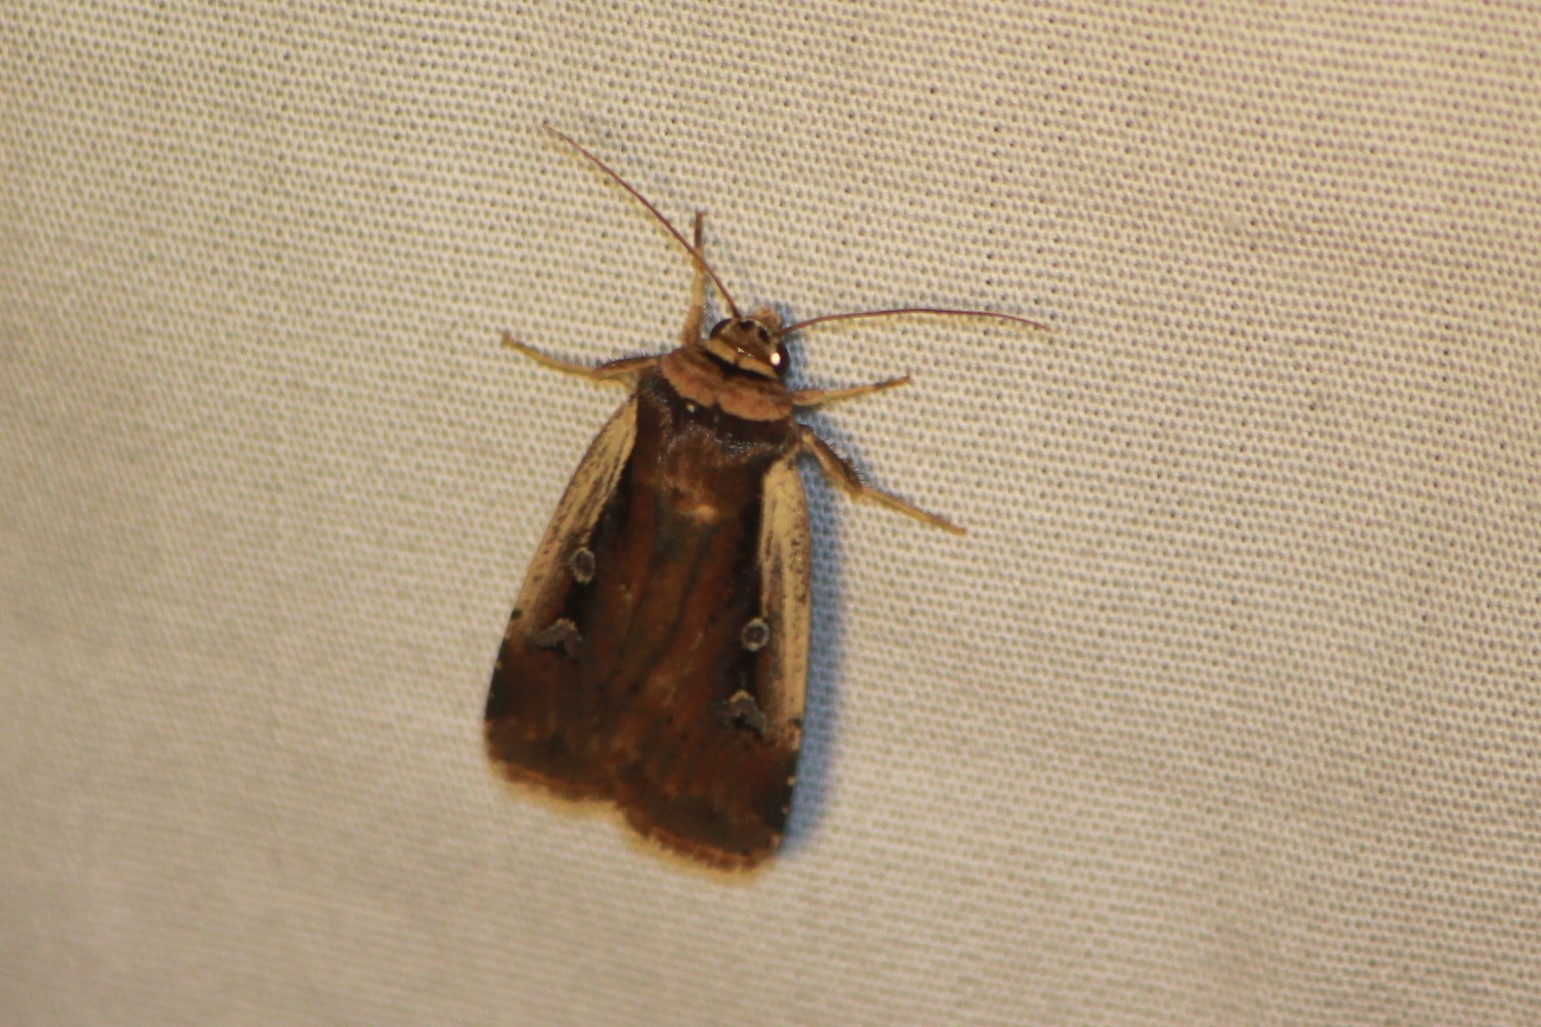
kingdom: Animalia
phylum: Arthropoda
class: Insecta
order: Lepidoptera
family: Noctuidae
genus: Ochropleura
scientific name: Ochropleura implecta
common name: Flame-shouldered dart
